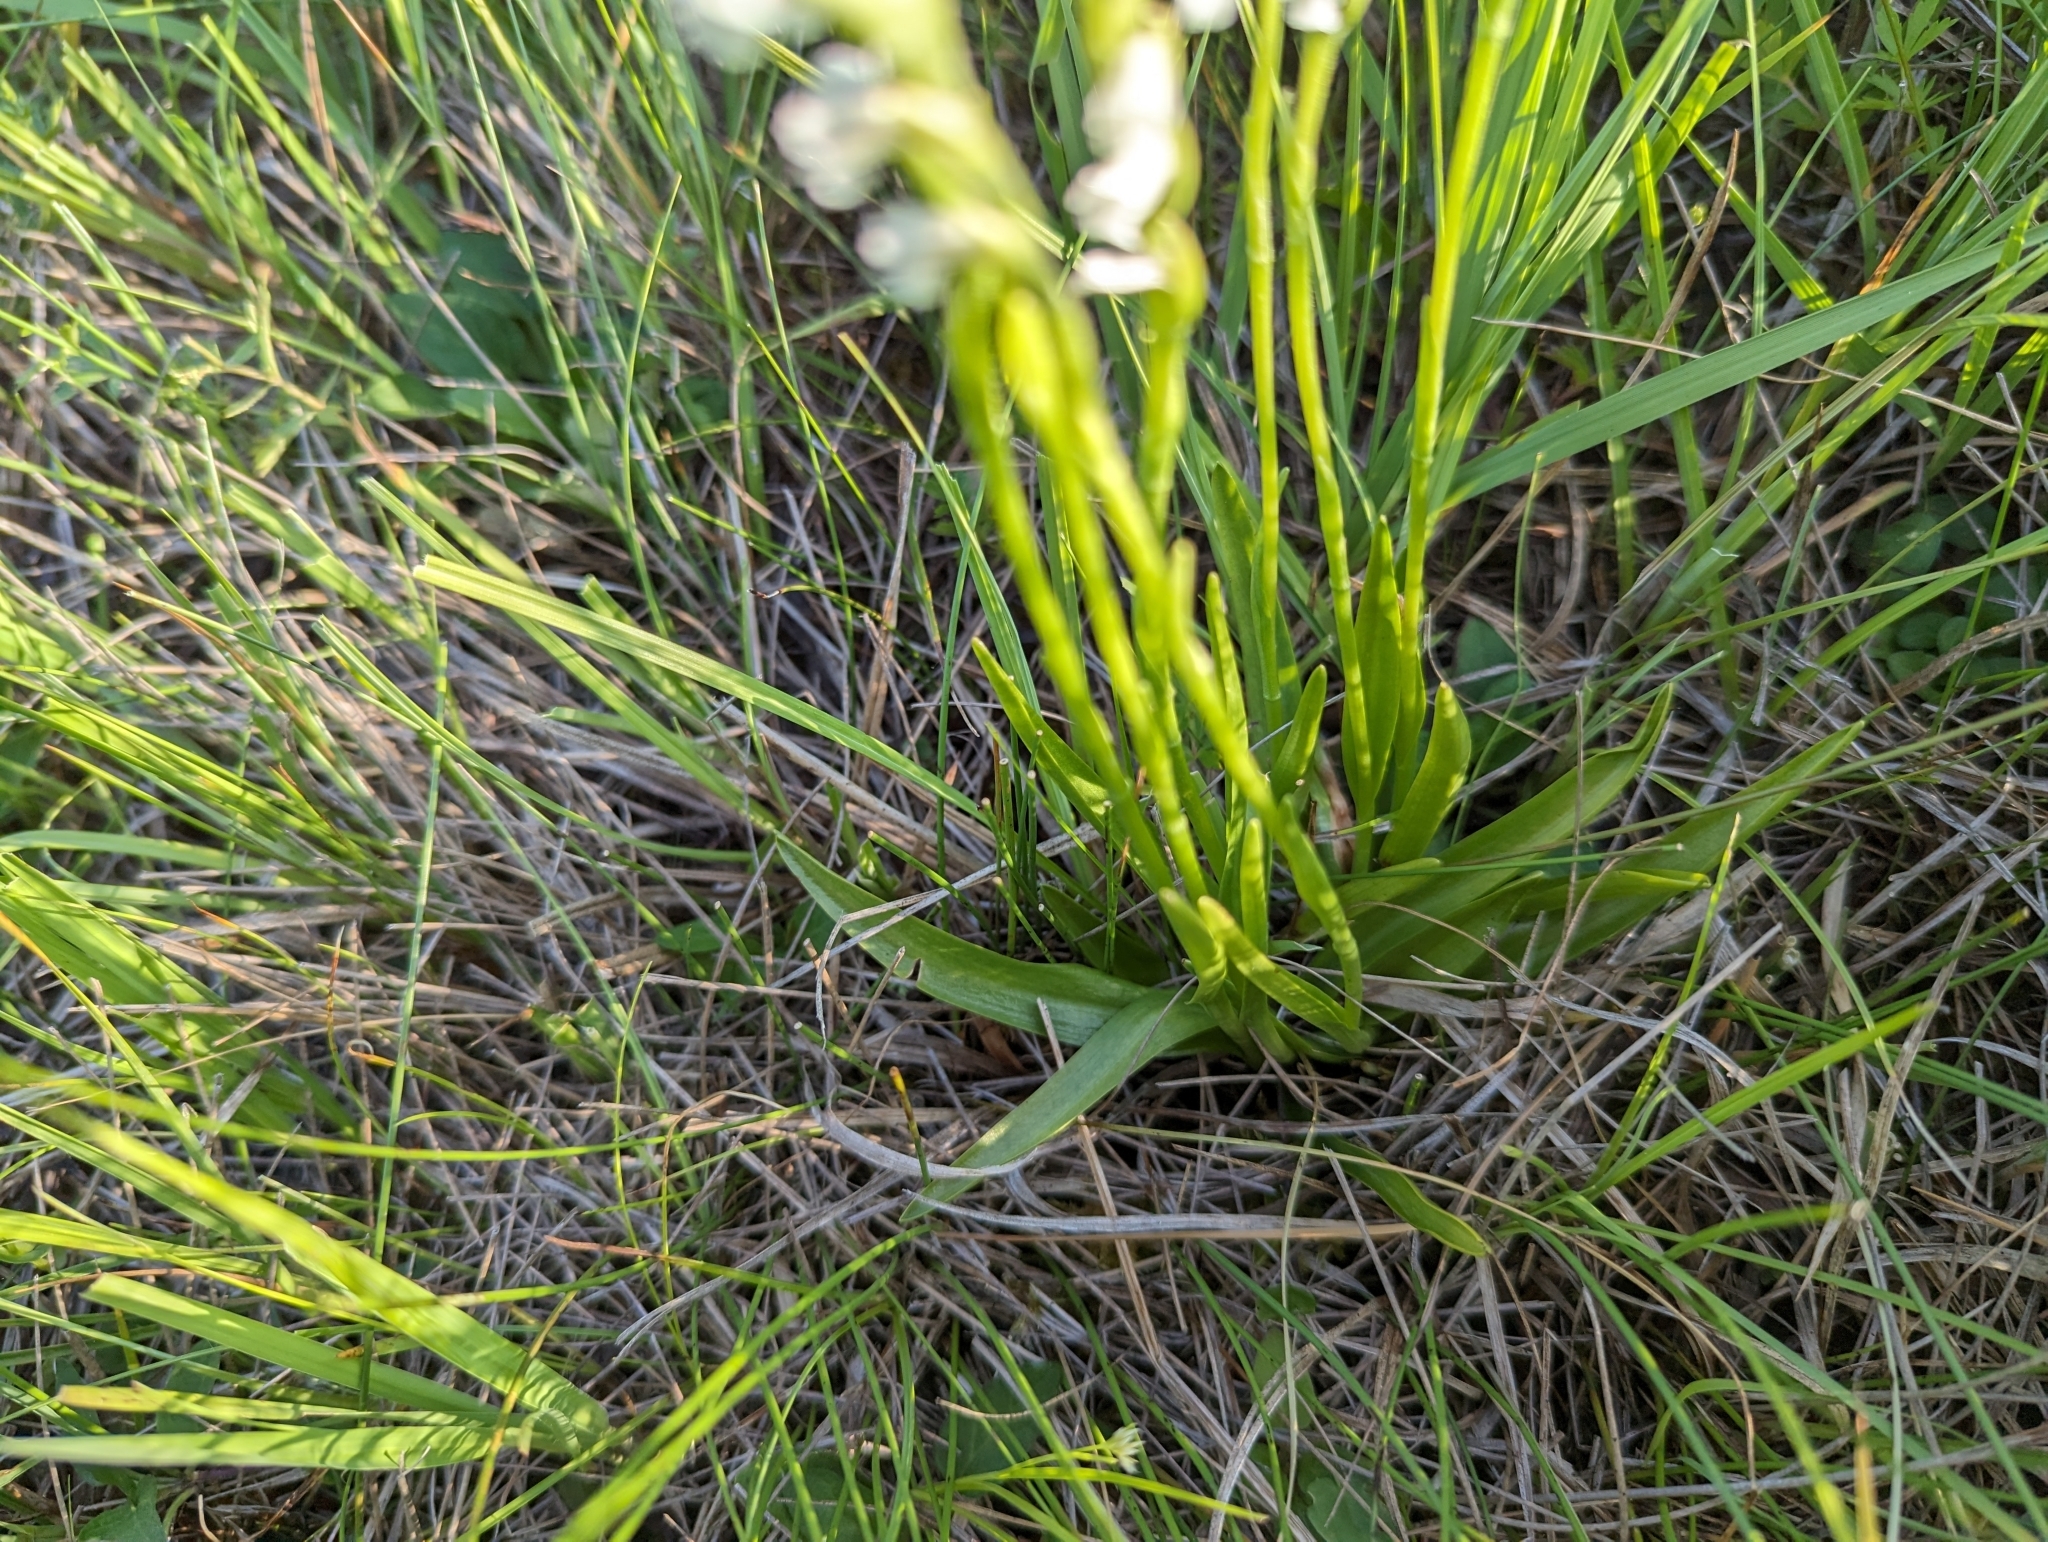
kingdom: Plantae
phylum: Tracheophyta
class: Liliopsida
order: Asparagales
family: Orchidaceae
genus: Spiranthes
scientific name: Spiranthes aestivalis
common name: Summer lady's-tresses
